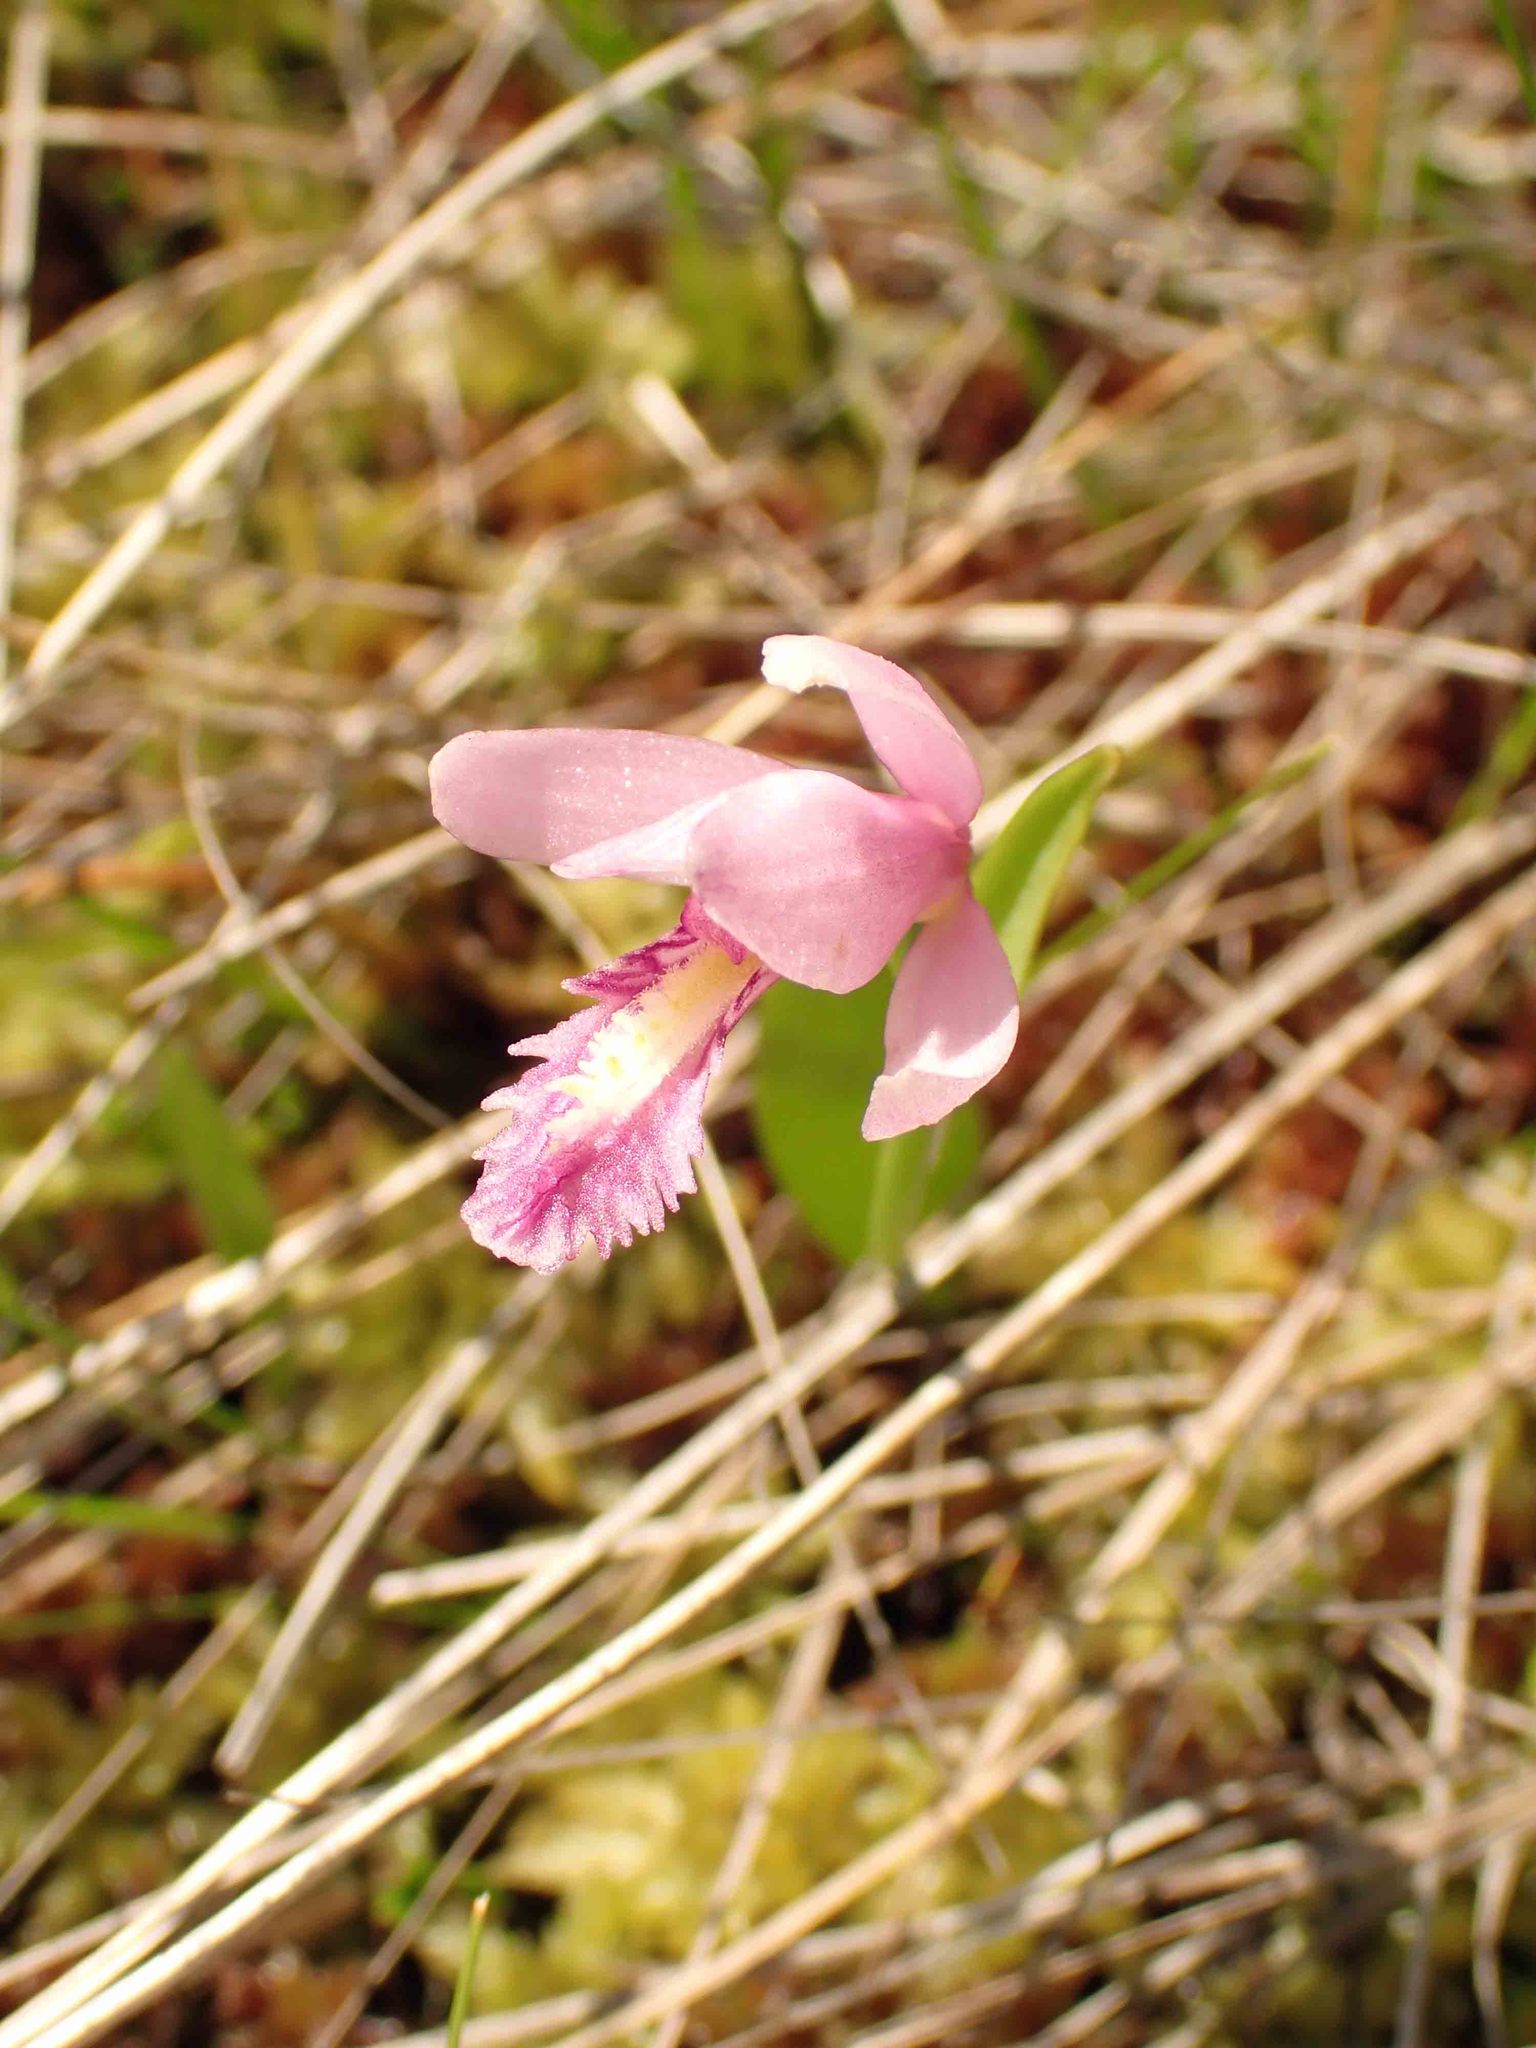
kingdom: Plantae
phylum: Tracheophyta
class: Liliopsida
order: Asparagales
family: Orchidaceae
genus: Pogonia
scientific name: Pogonia ophioglossoides
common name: Rose pogonia
